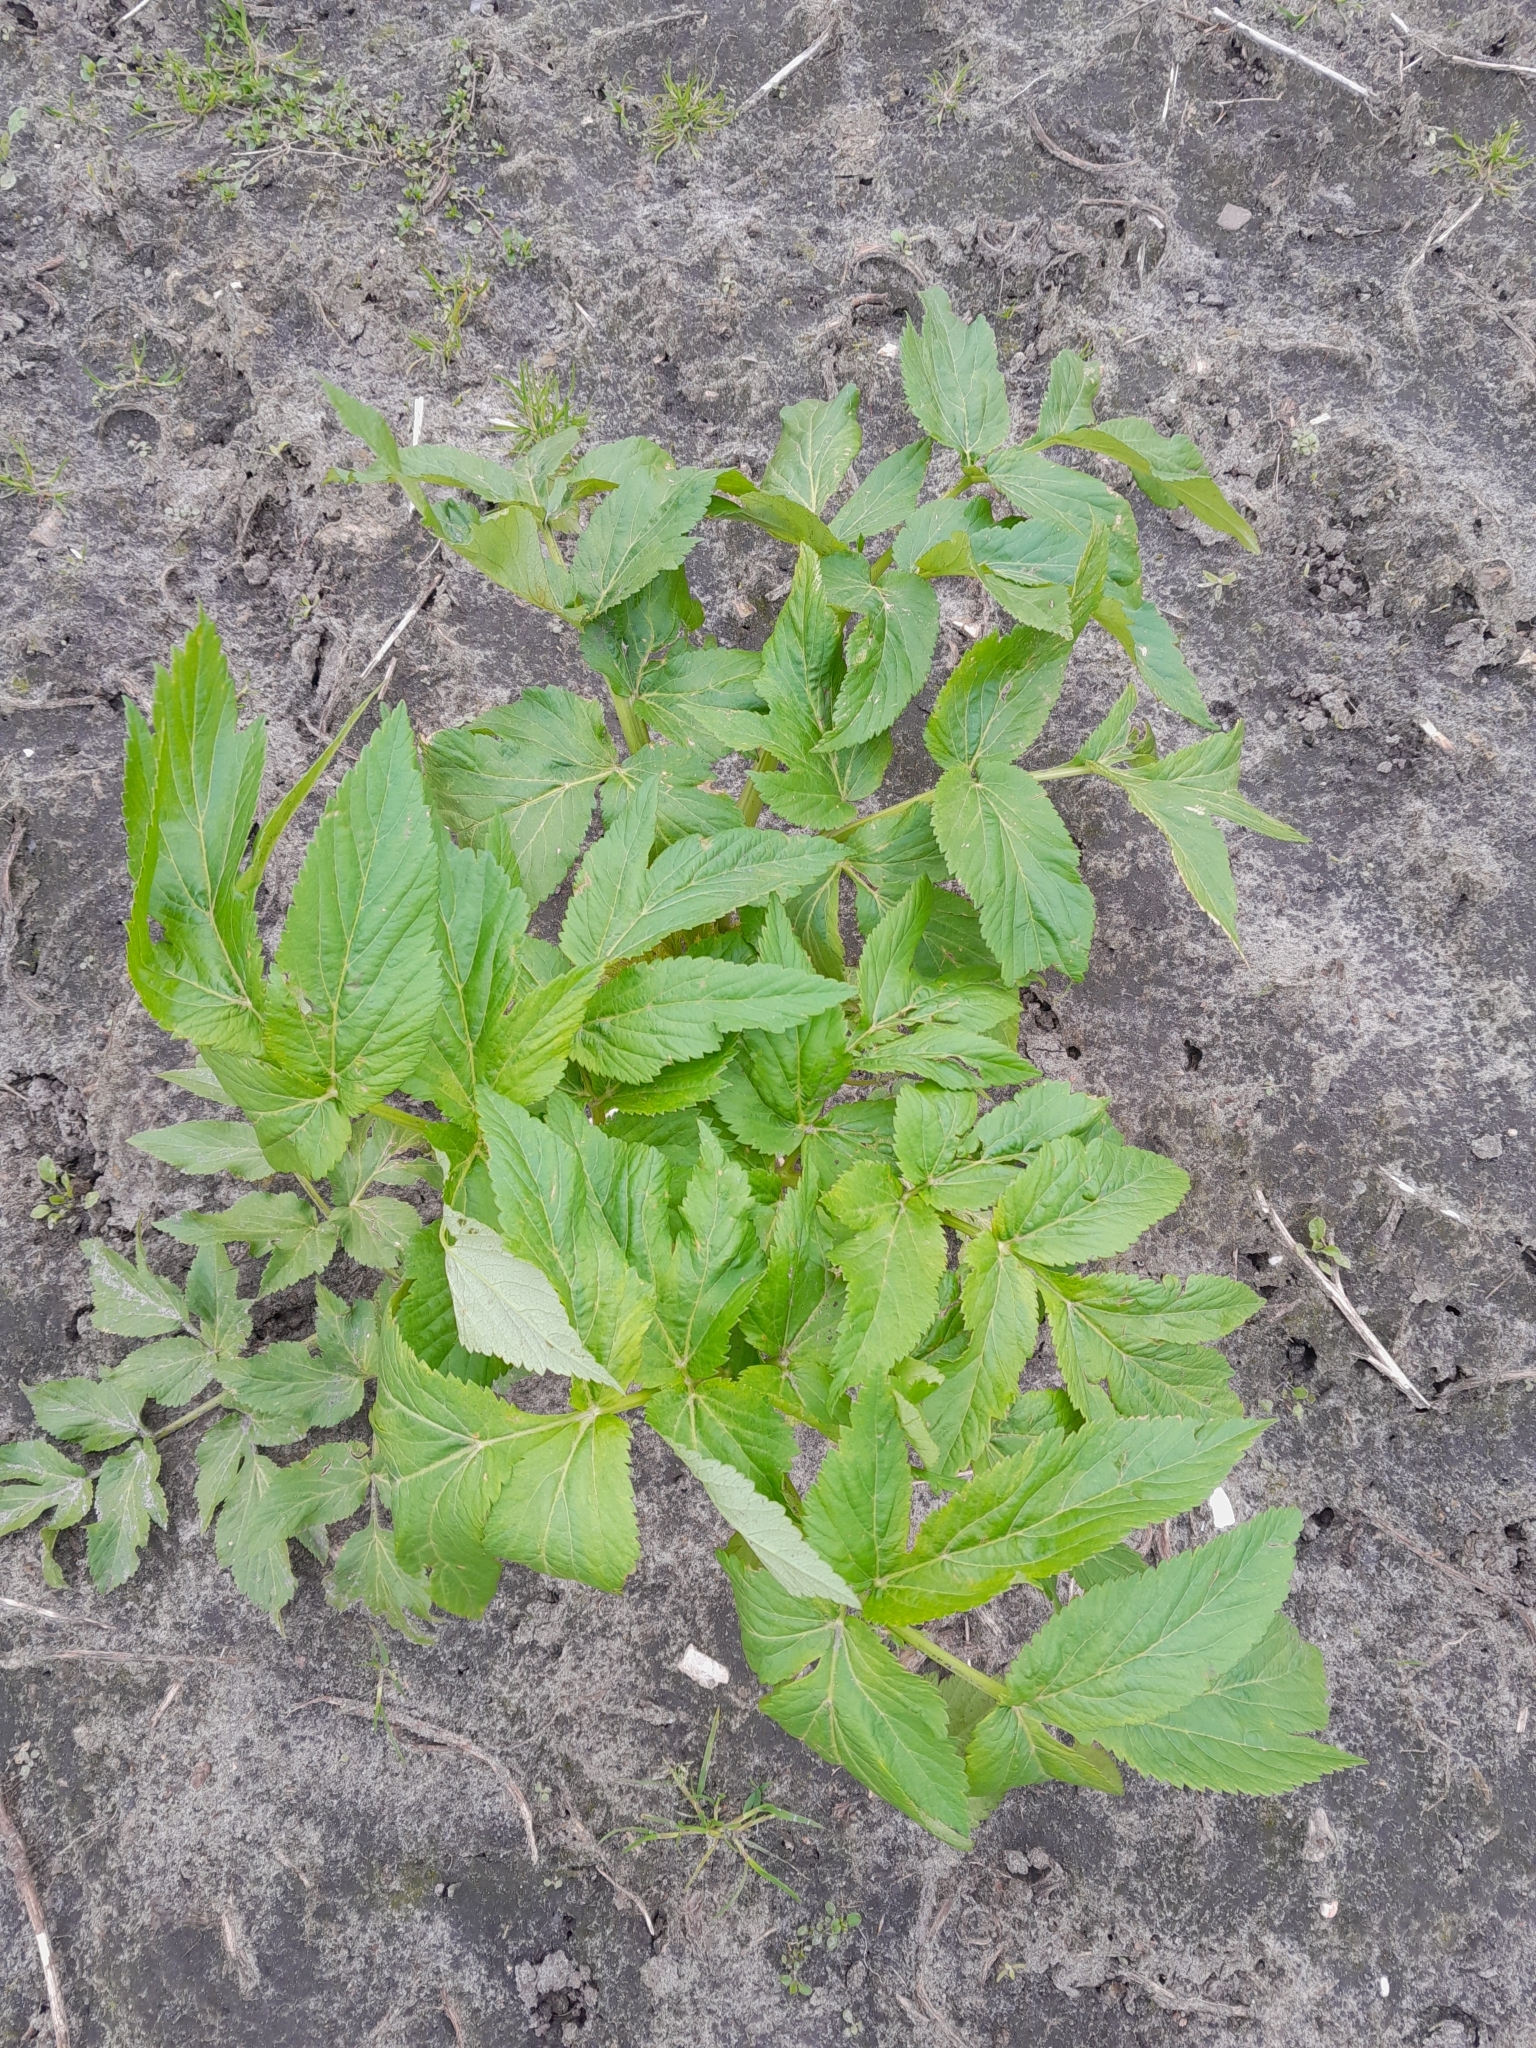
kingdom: Plantae
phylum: Tracheophyta
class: Magnoliopsida
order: Apiales
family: Apiaceae
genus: Angelica
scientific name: Angelica archangelica
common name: Garden angelica
